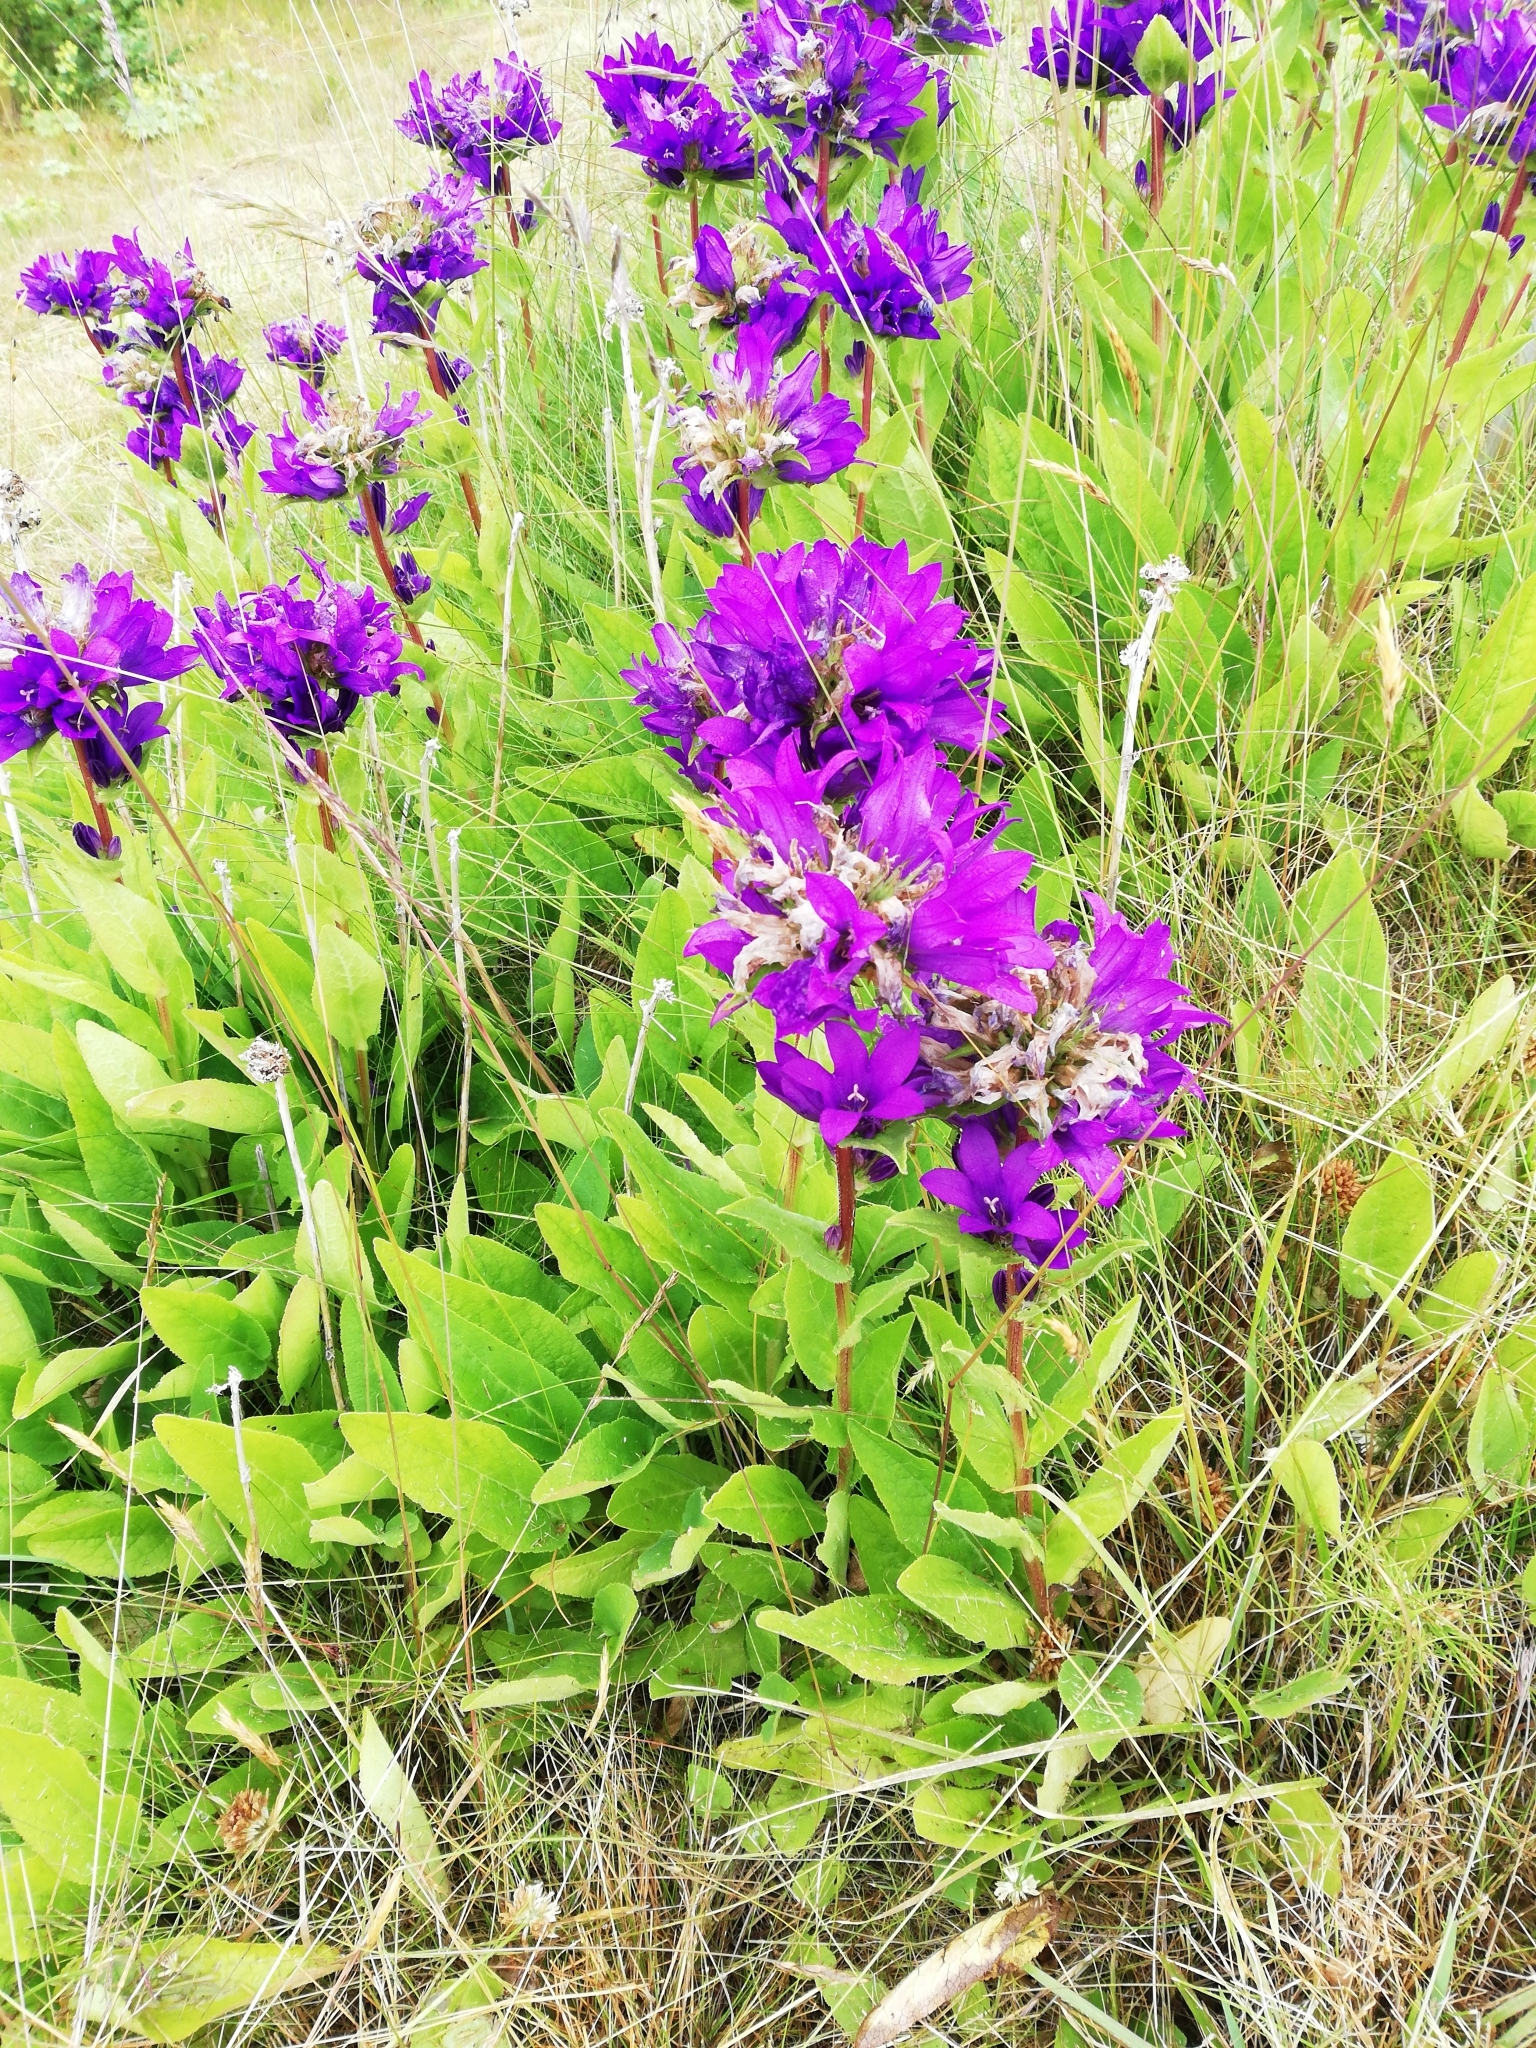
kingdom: Plantae
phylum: Tracheophyta
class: Magnoliopsida
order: Asterales
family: Campanulaceae
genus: Campanula
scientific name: Campanula glomerata
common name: Clustered bellflower
